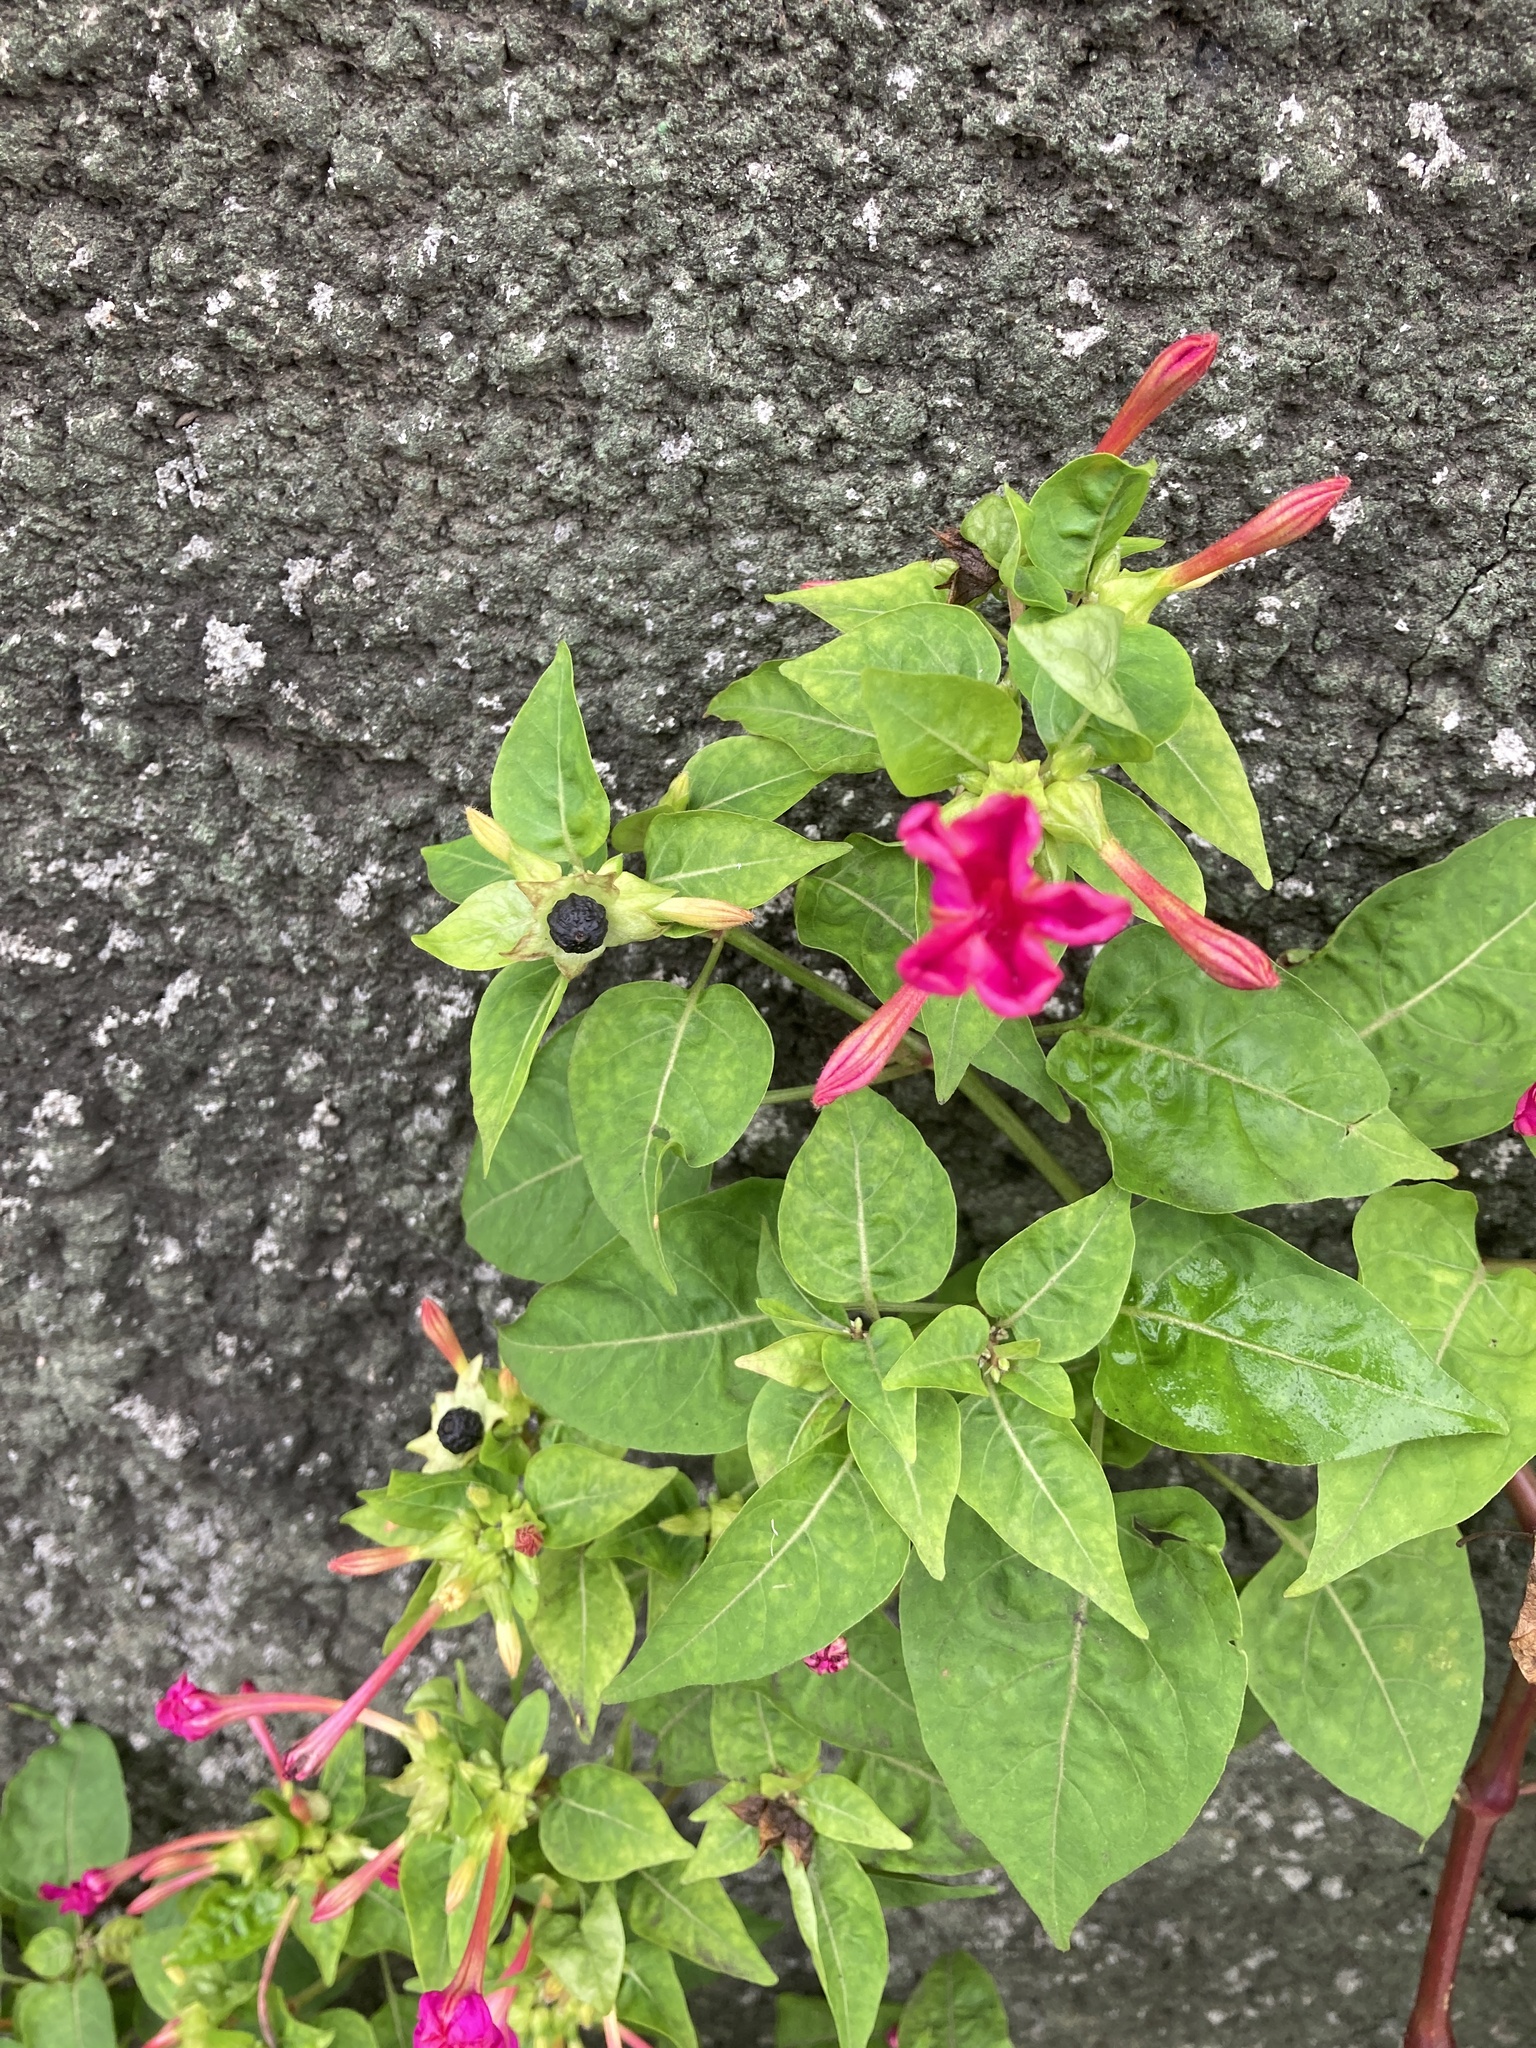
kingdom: Plantae
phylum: Tracheophyta
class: Magnoliopsida
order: Caryophyllales
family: Nyctaginaceae
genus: Mirabilis
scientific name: Mirabilis jalapa
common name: Marvel-of-peru
